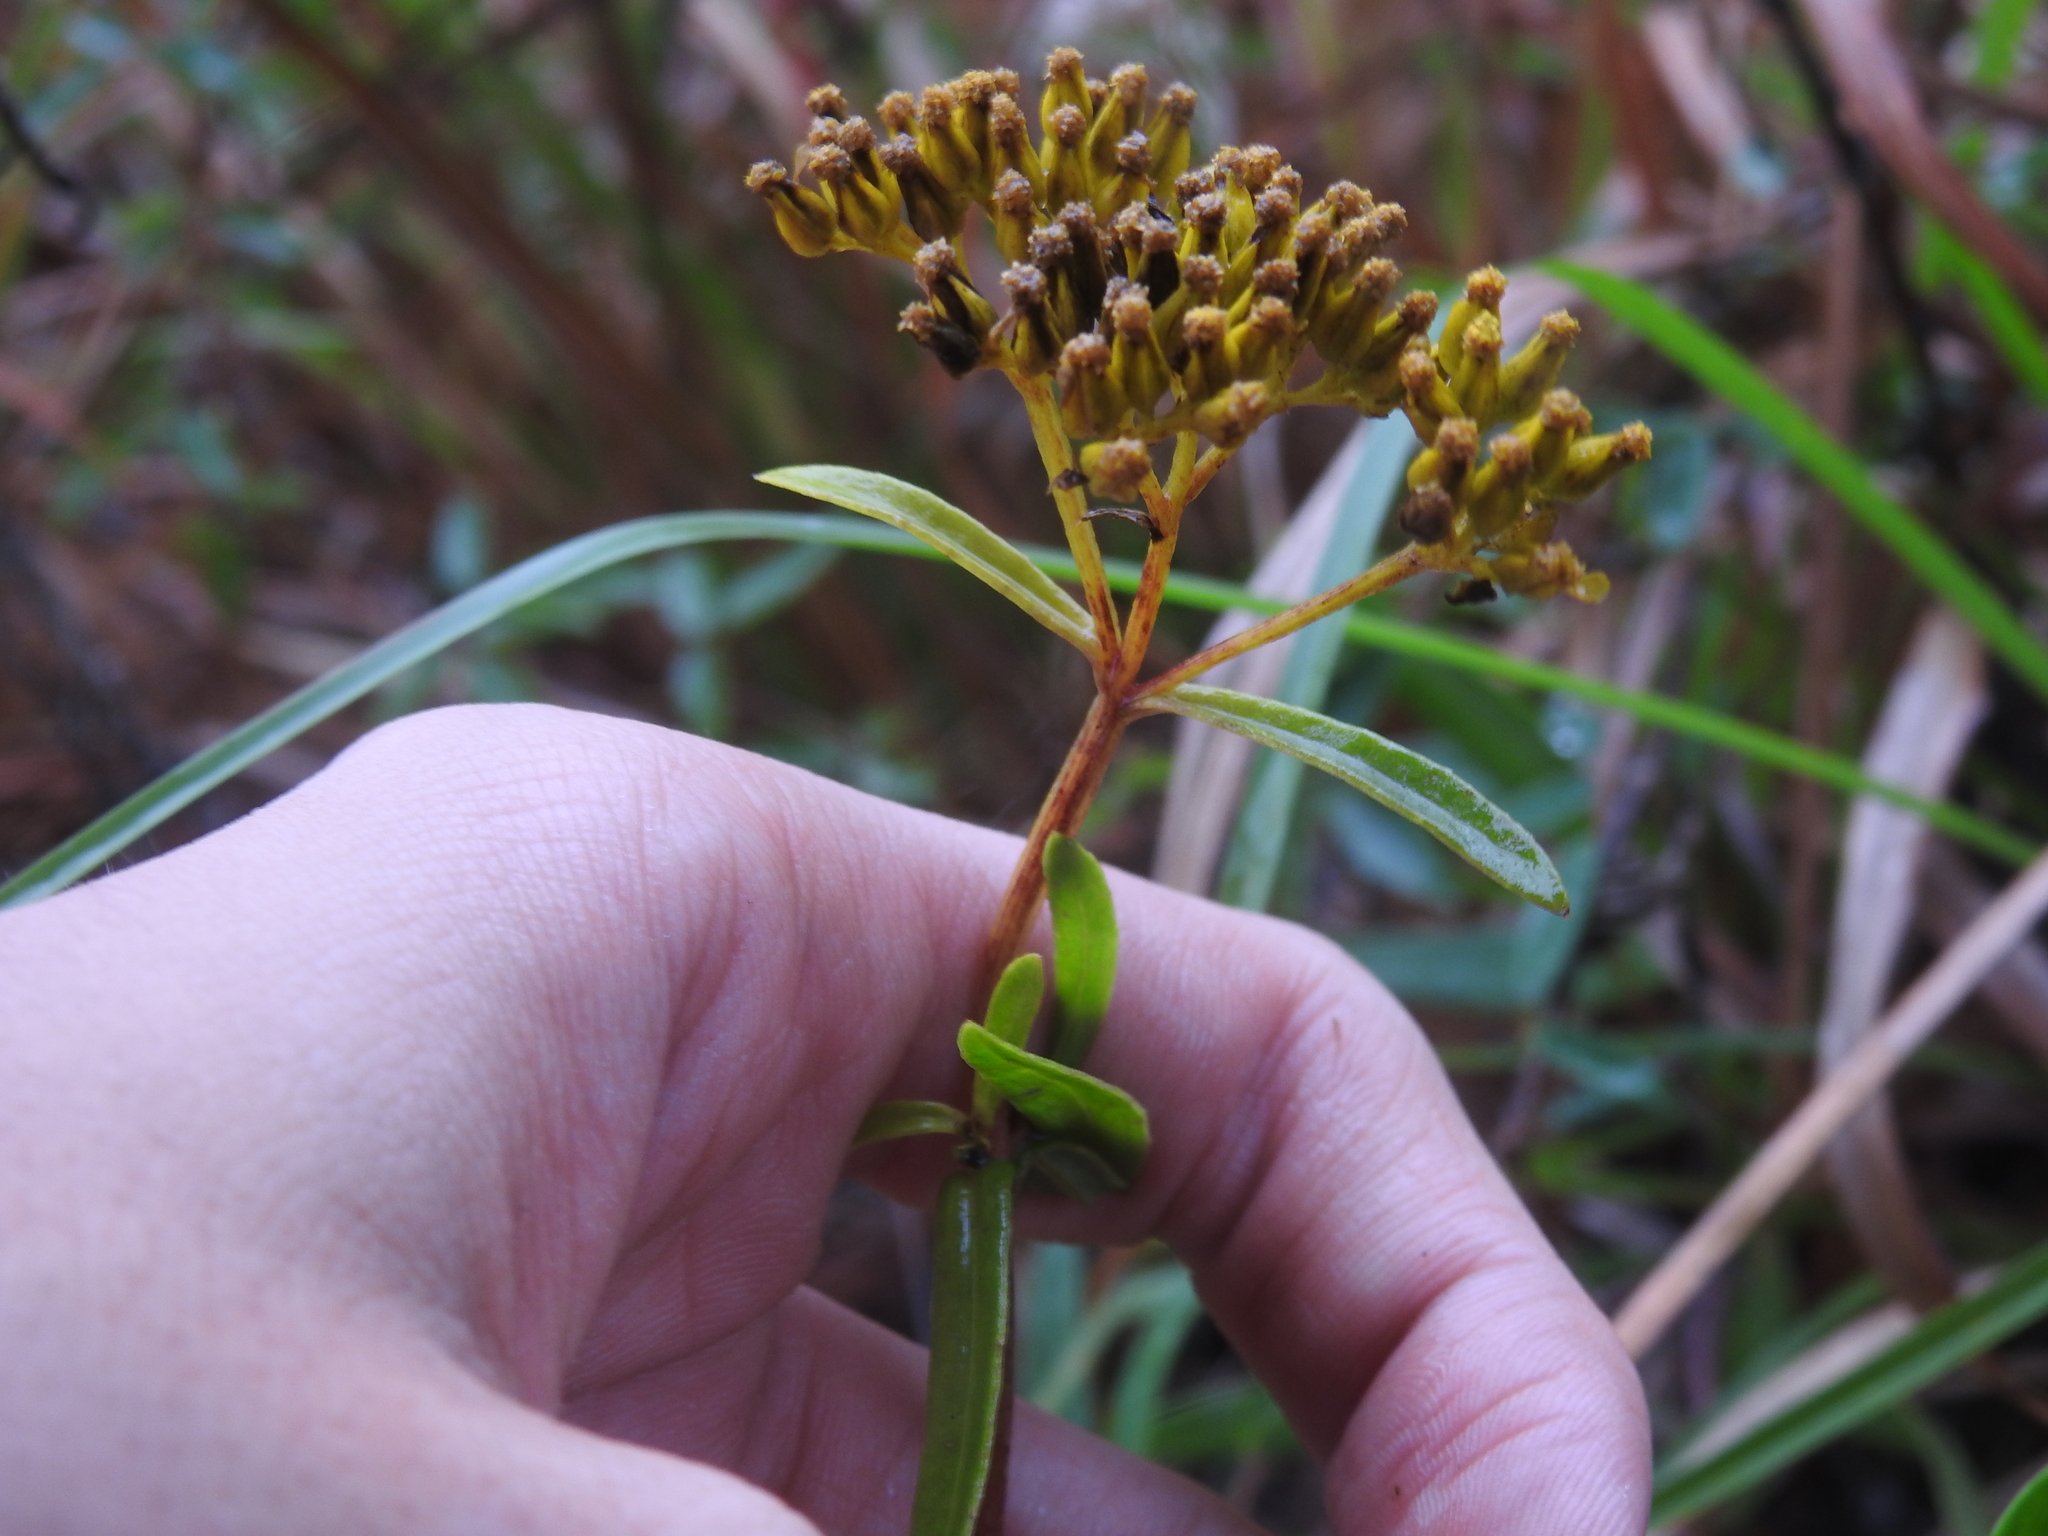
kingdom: Plantae
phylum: Tracheophyta
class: Magnoliopsida
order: Asterales
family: Asteraceae
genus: Flaveria
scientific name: Flaveria linearis
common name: Yellowtop
